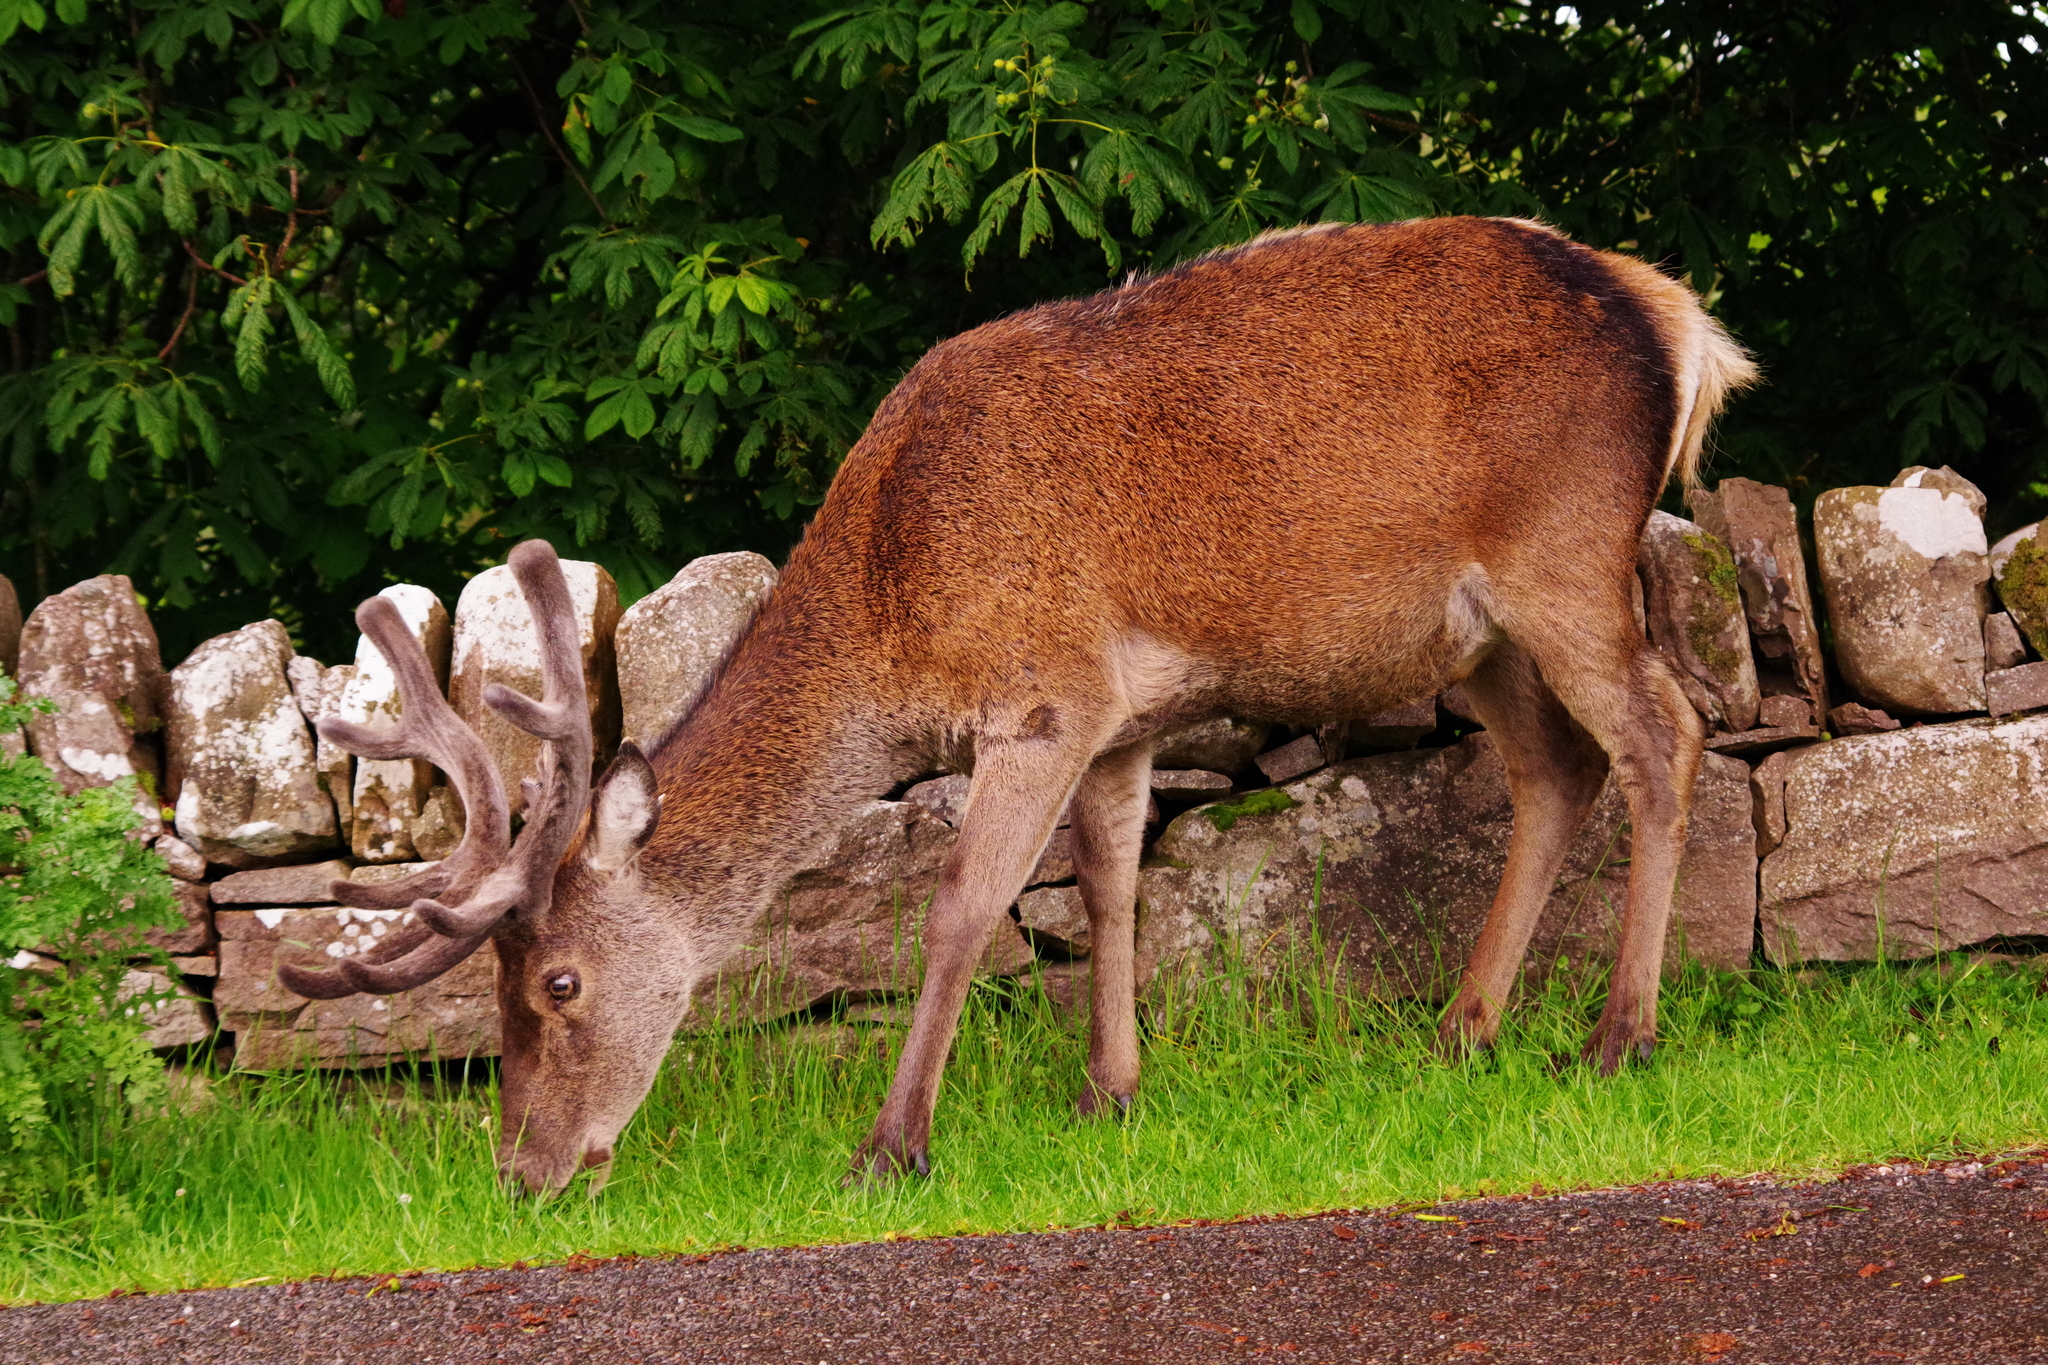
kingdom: Animalia
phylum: Chordata
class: Mammalia
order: Artiodactyla
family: Cervidae
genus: Cervus
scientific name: Cervus elaphus
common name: Red deer
